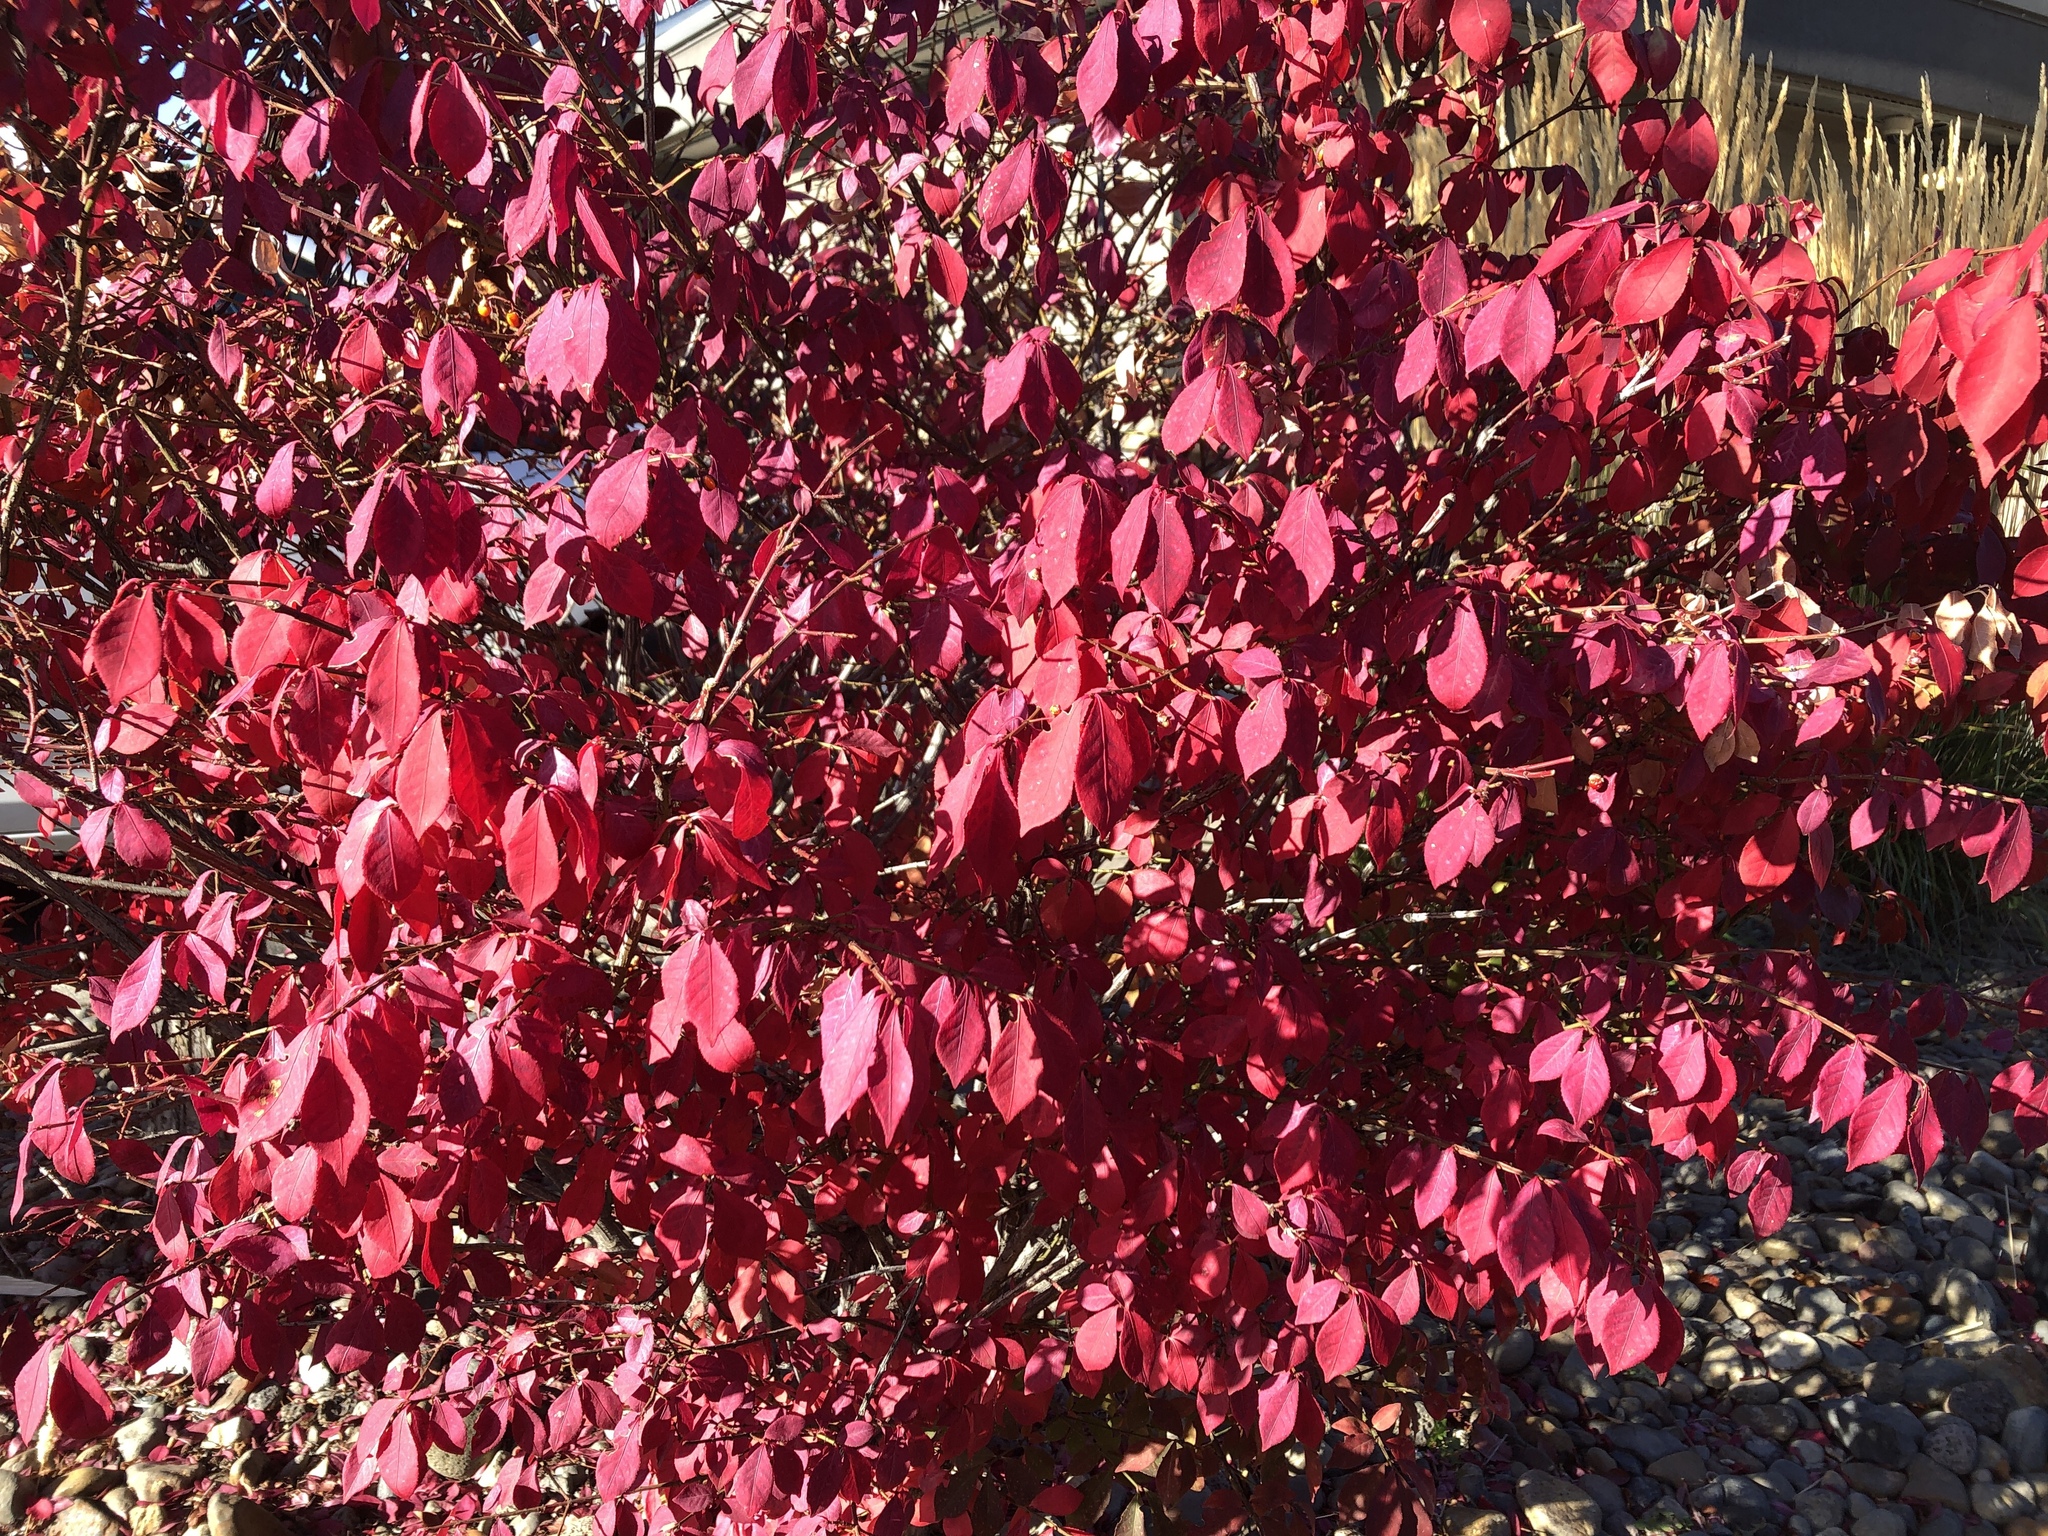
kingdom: Plantae
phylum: Tracheophyta
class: Magnoliopsida
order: Celastrales
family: Celastraceae
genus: Euonymus
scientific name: Euonymus alatus
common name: Winged euonymus
